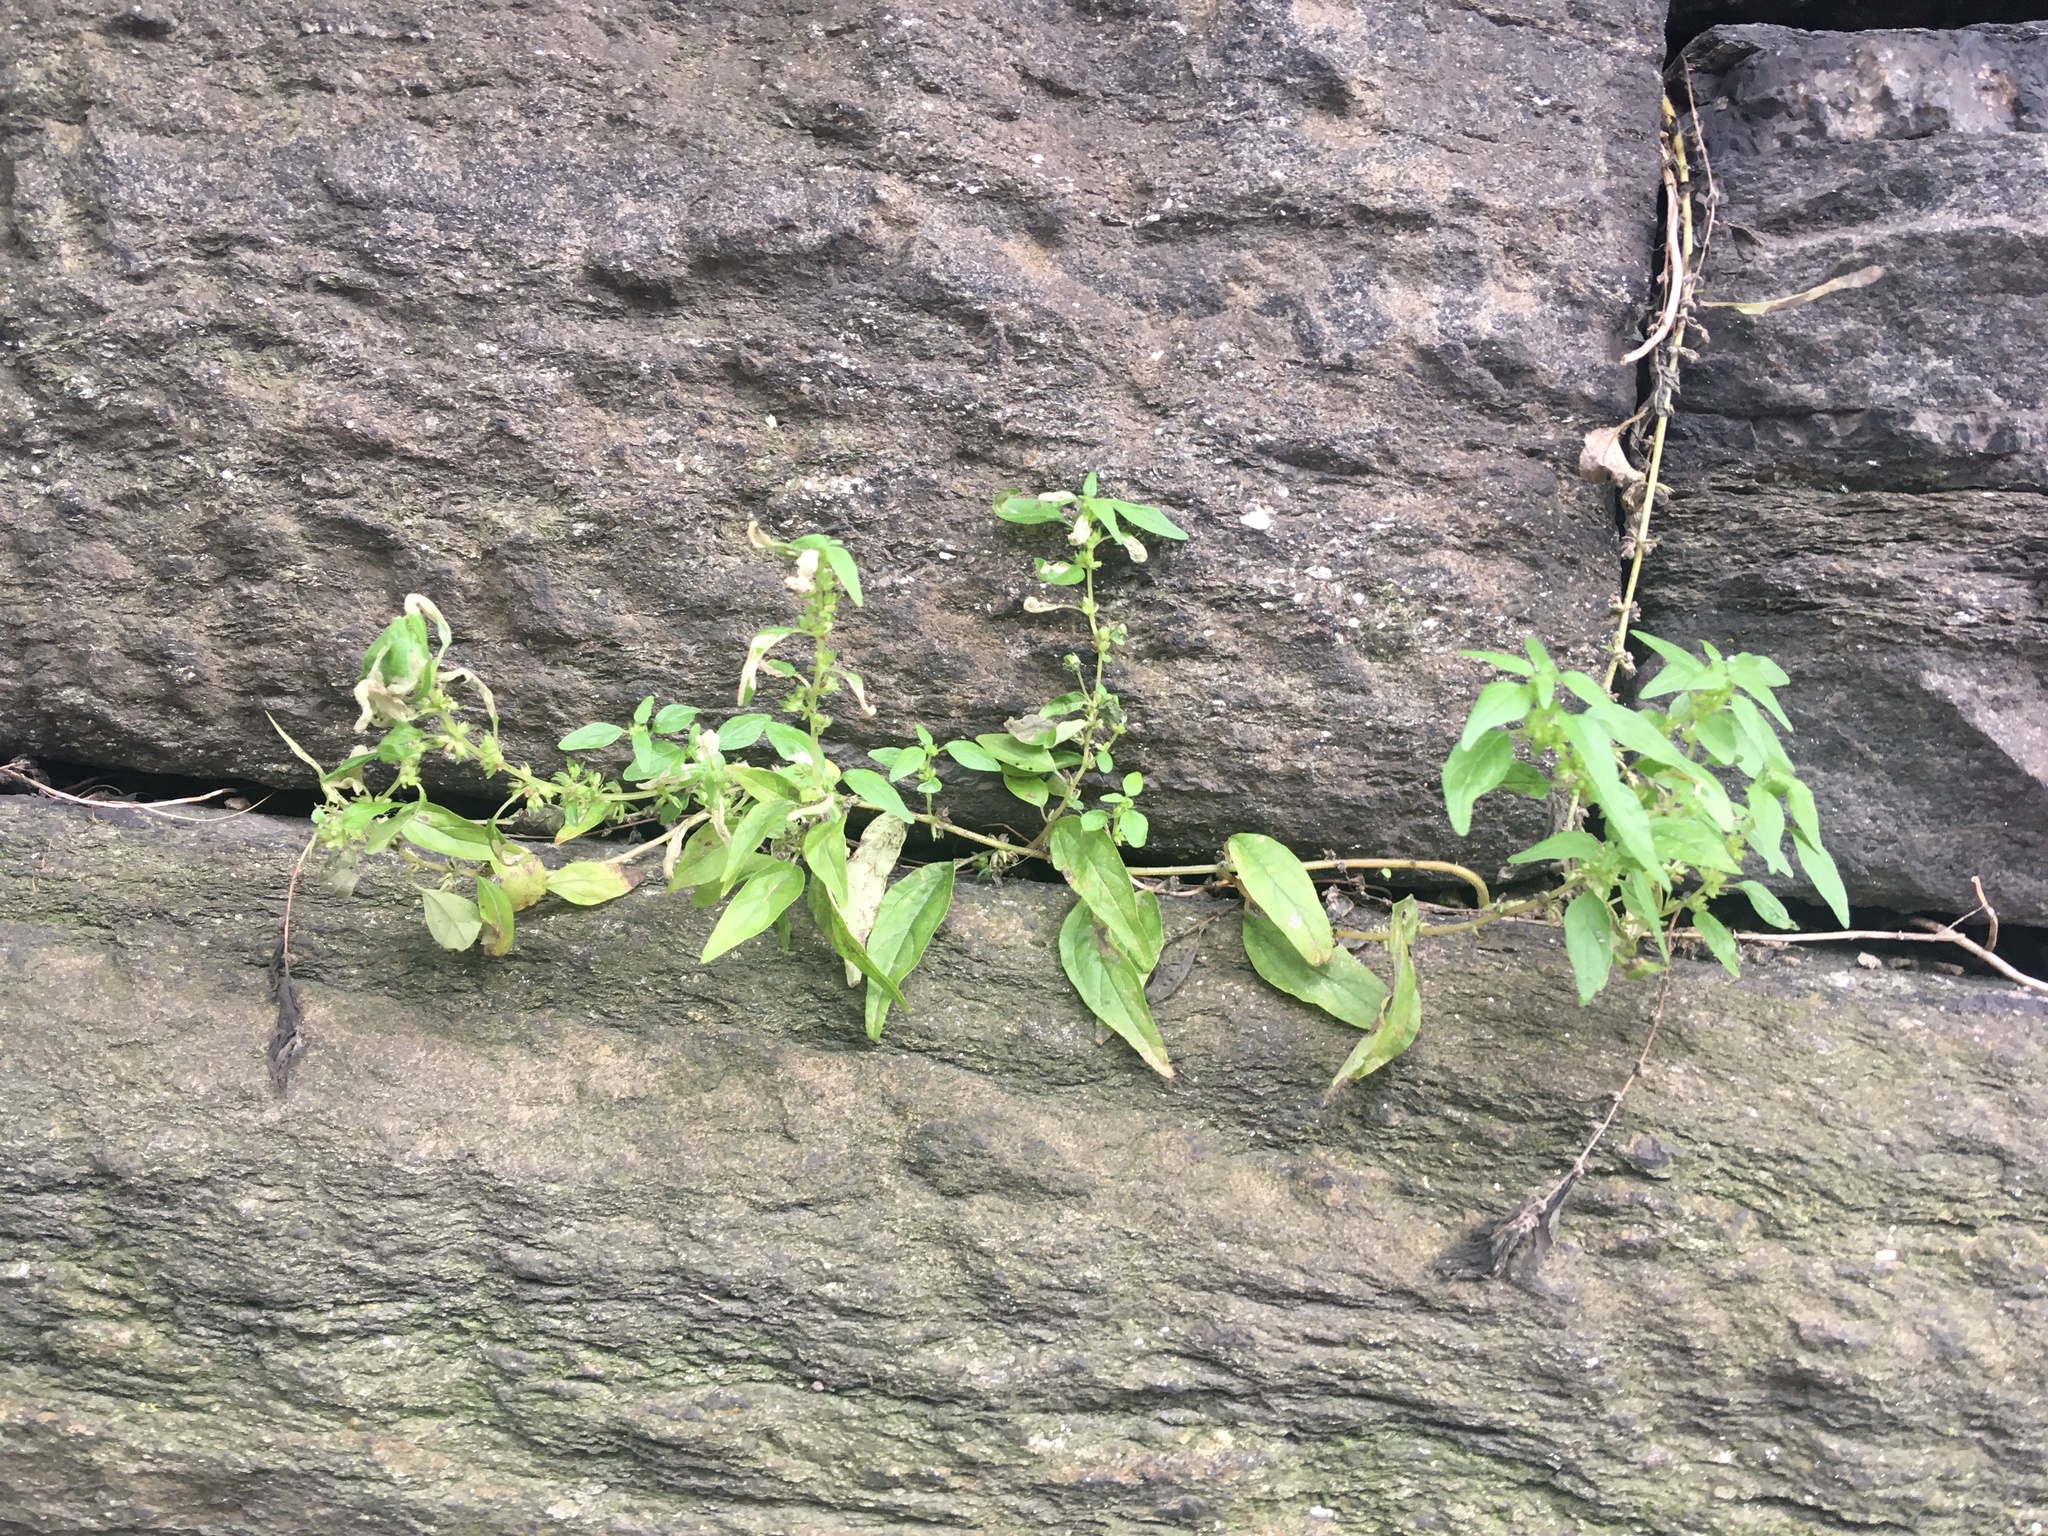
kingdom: Plantae
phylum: Tracheophyta
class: Magnoliopsida
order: Rosales
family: Urticaceae
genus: Parietaria
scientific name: Parietaria pensylvanica
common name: Pennsylvania pellitory
